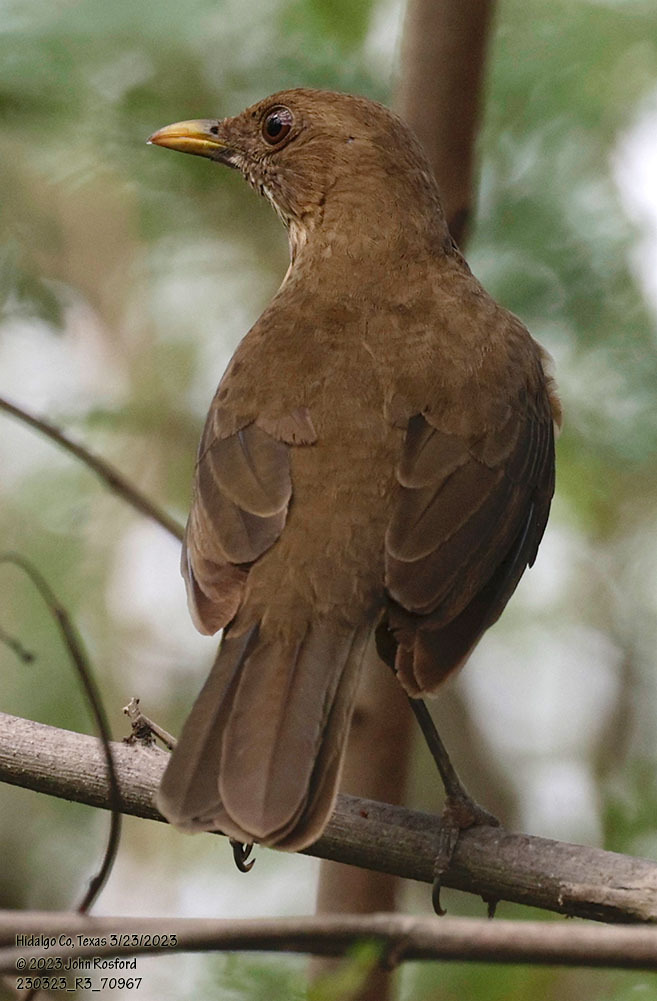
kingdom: Animalia
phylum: Chordata
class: Aves
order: Passeriformes
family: Turdidae
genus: Turdus
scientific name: Turdus grayi
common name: Clay-colored thrush
